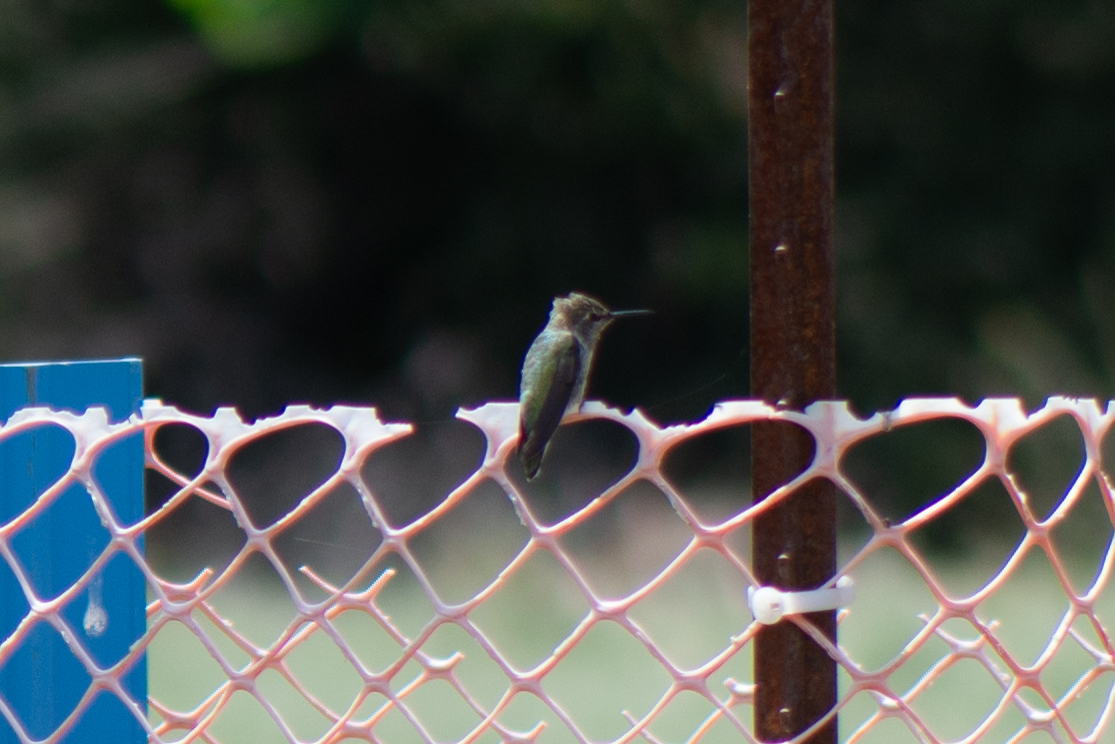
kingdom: Animalia
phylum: Chordata
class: Aves
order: Apodiformes
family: Trochilidae
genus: Calypte
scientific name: Calypte anna
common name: Anna's hummingbird
